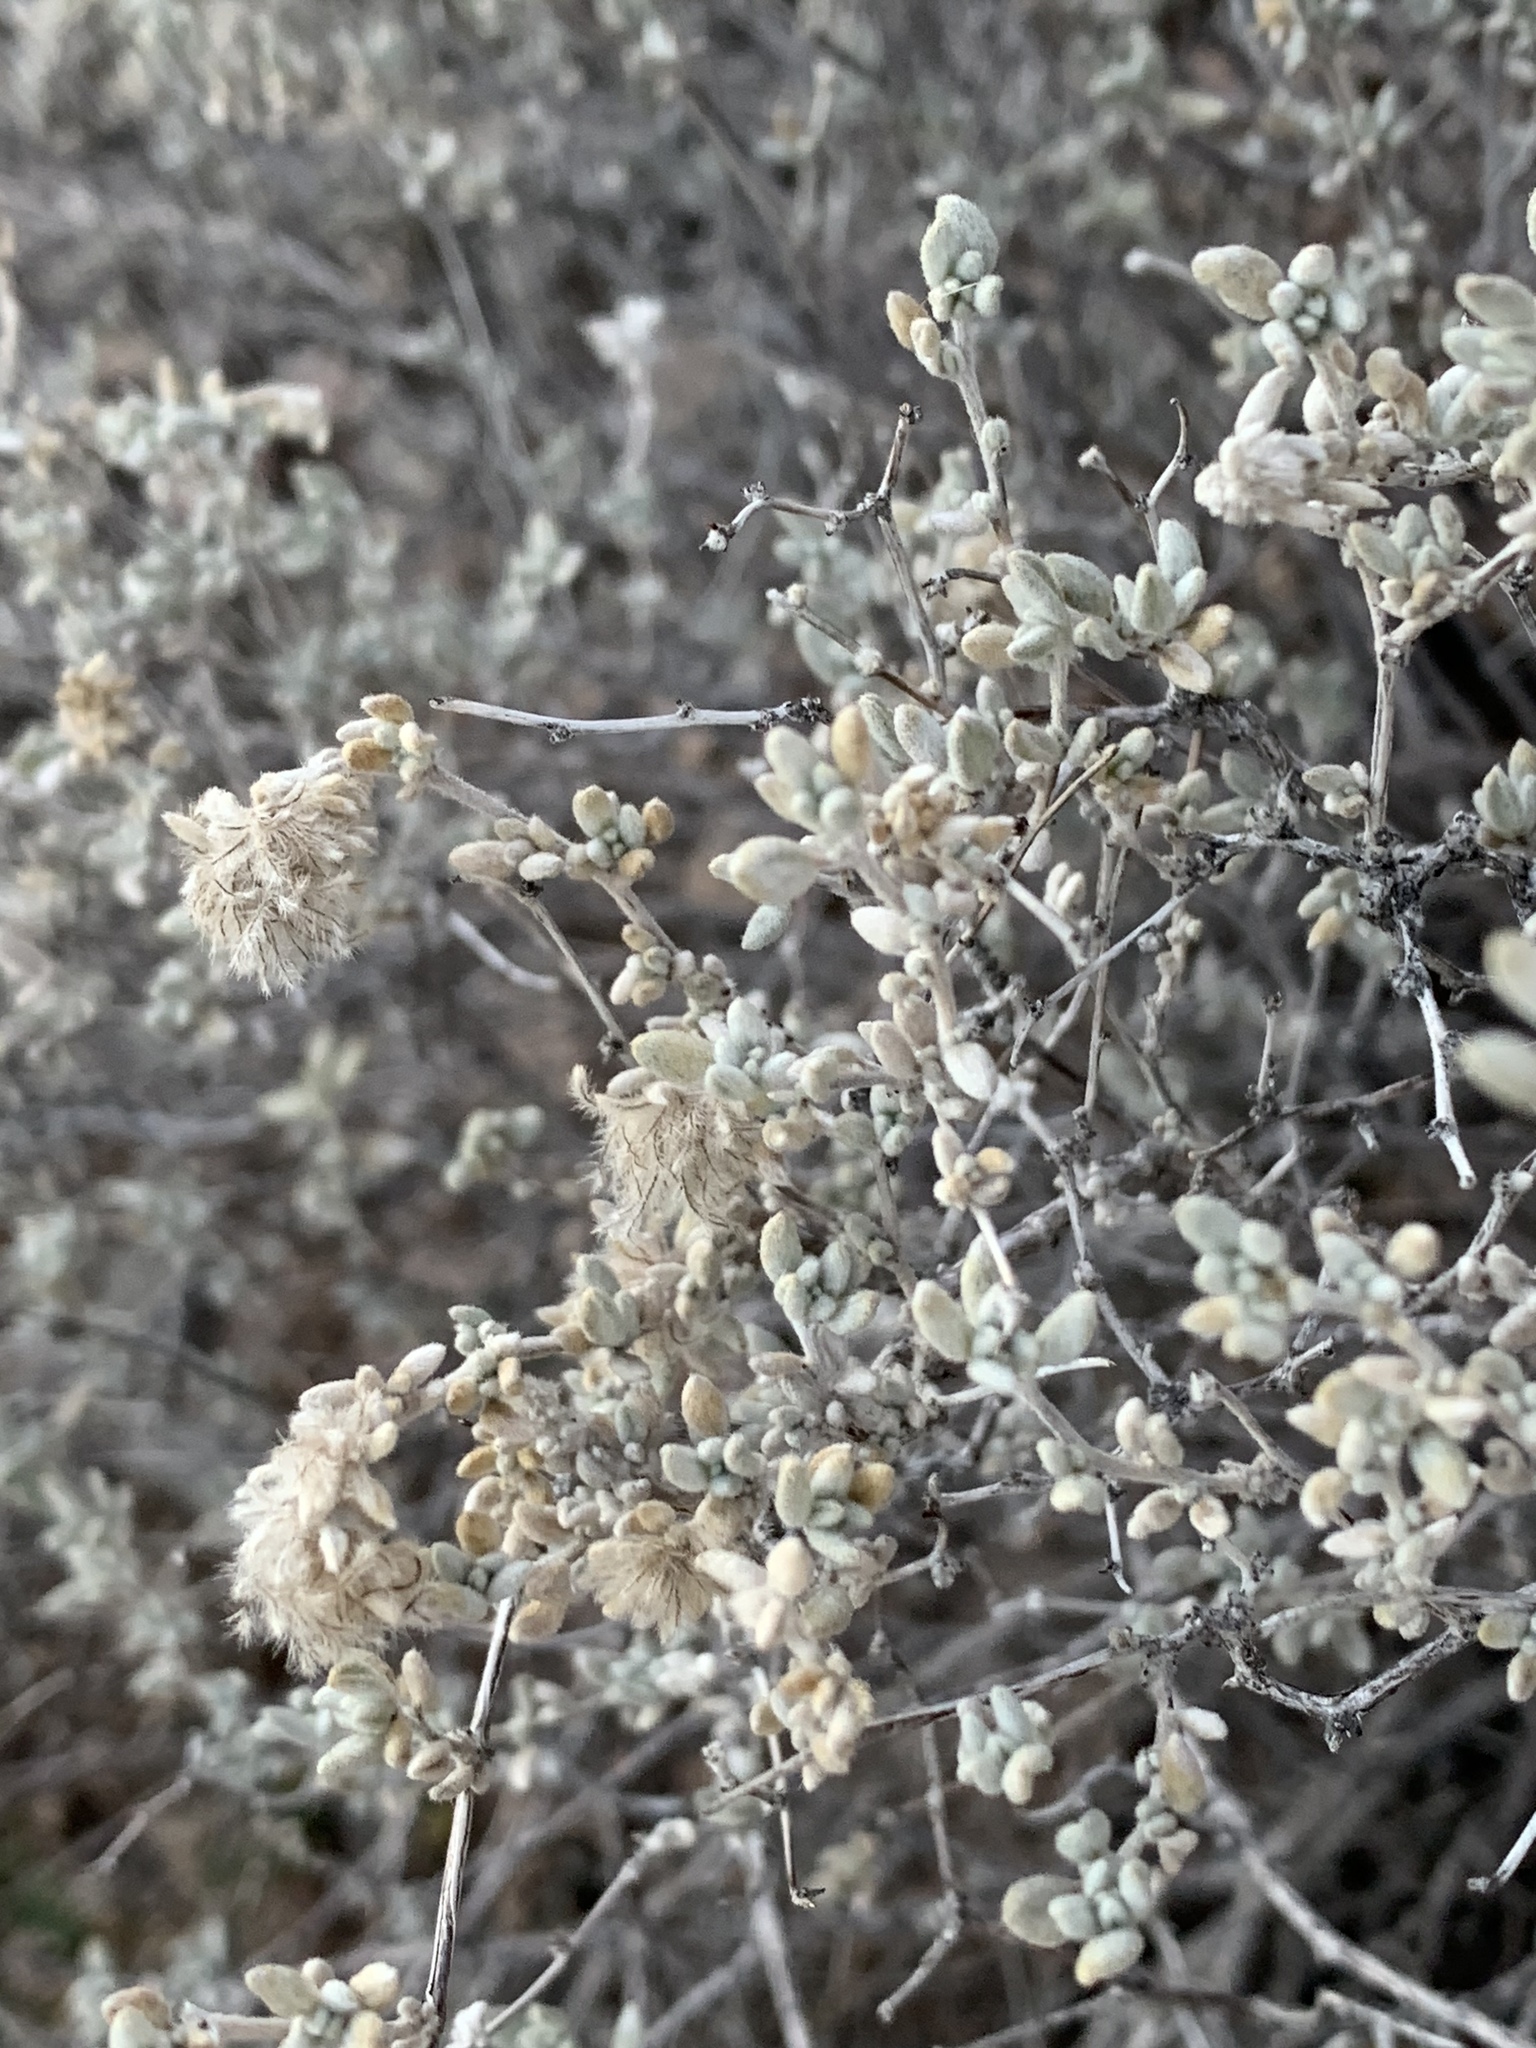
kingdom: Plantae
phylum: Tracheophyta
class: Magnoliopsida
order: Boraginales
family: Ehretiaceae
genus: Tiquilia
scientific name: Tiquilia canescens
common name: Hairy tiquilia
